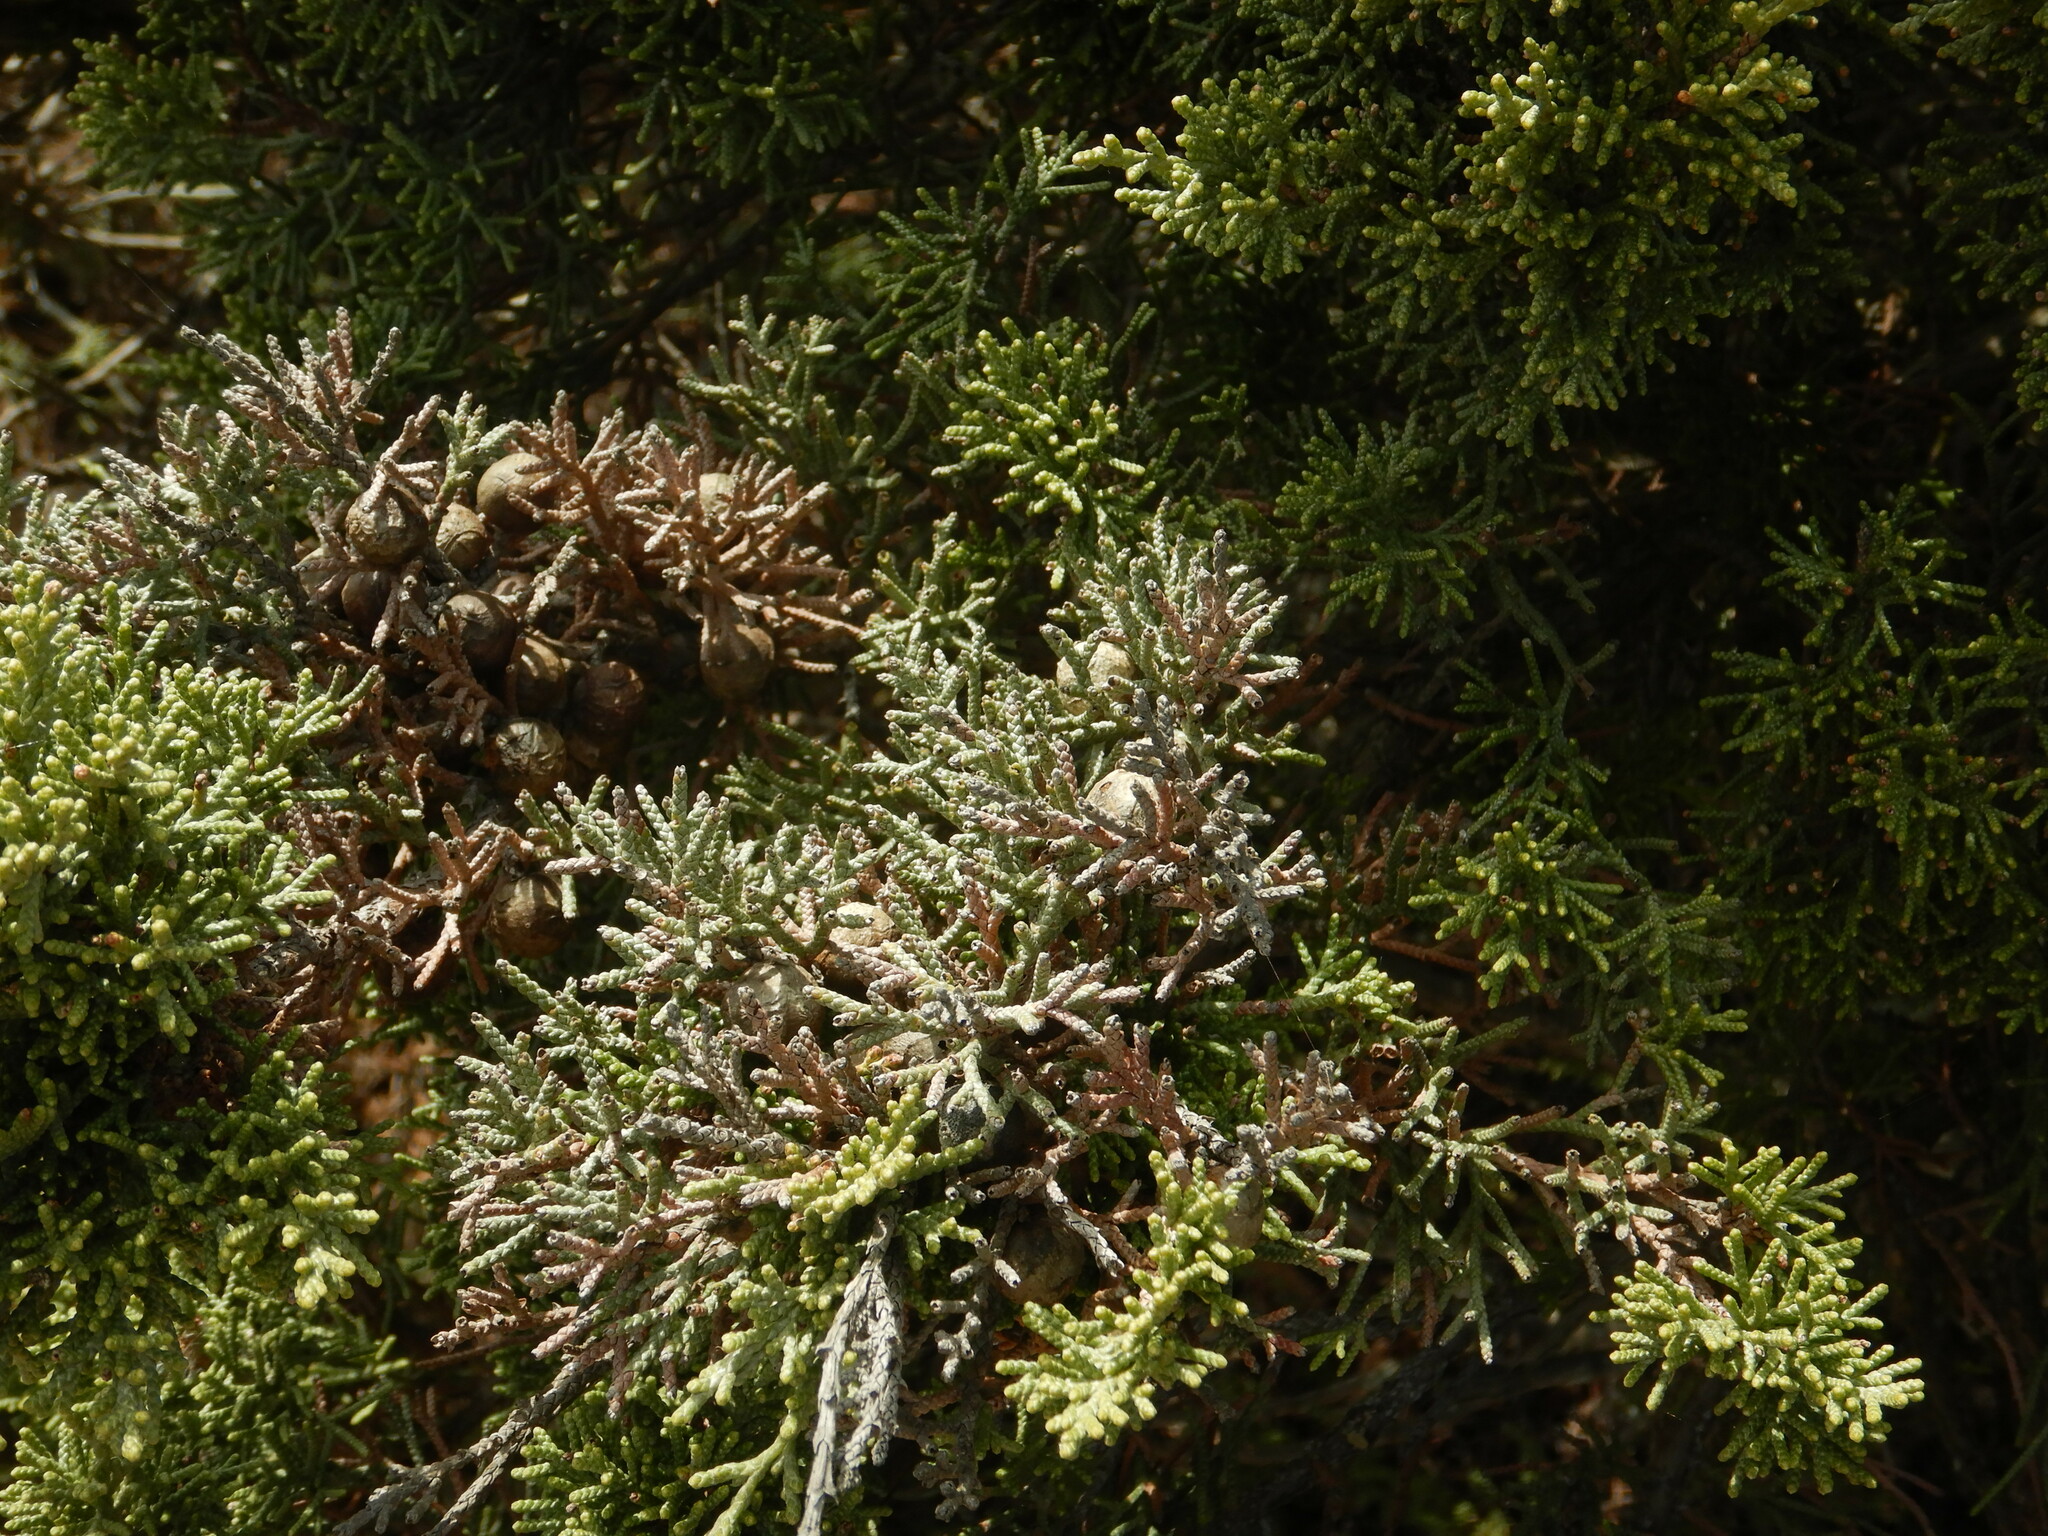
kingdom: Plantae
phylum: Tracheophyta
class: Pinopsida
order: Pinales
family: Cupressaceae
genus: Juniperus
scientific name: Juniperus phoenicea
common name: Phoenician juniper
